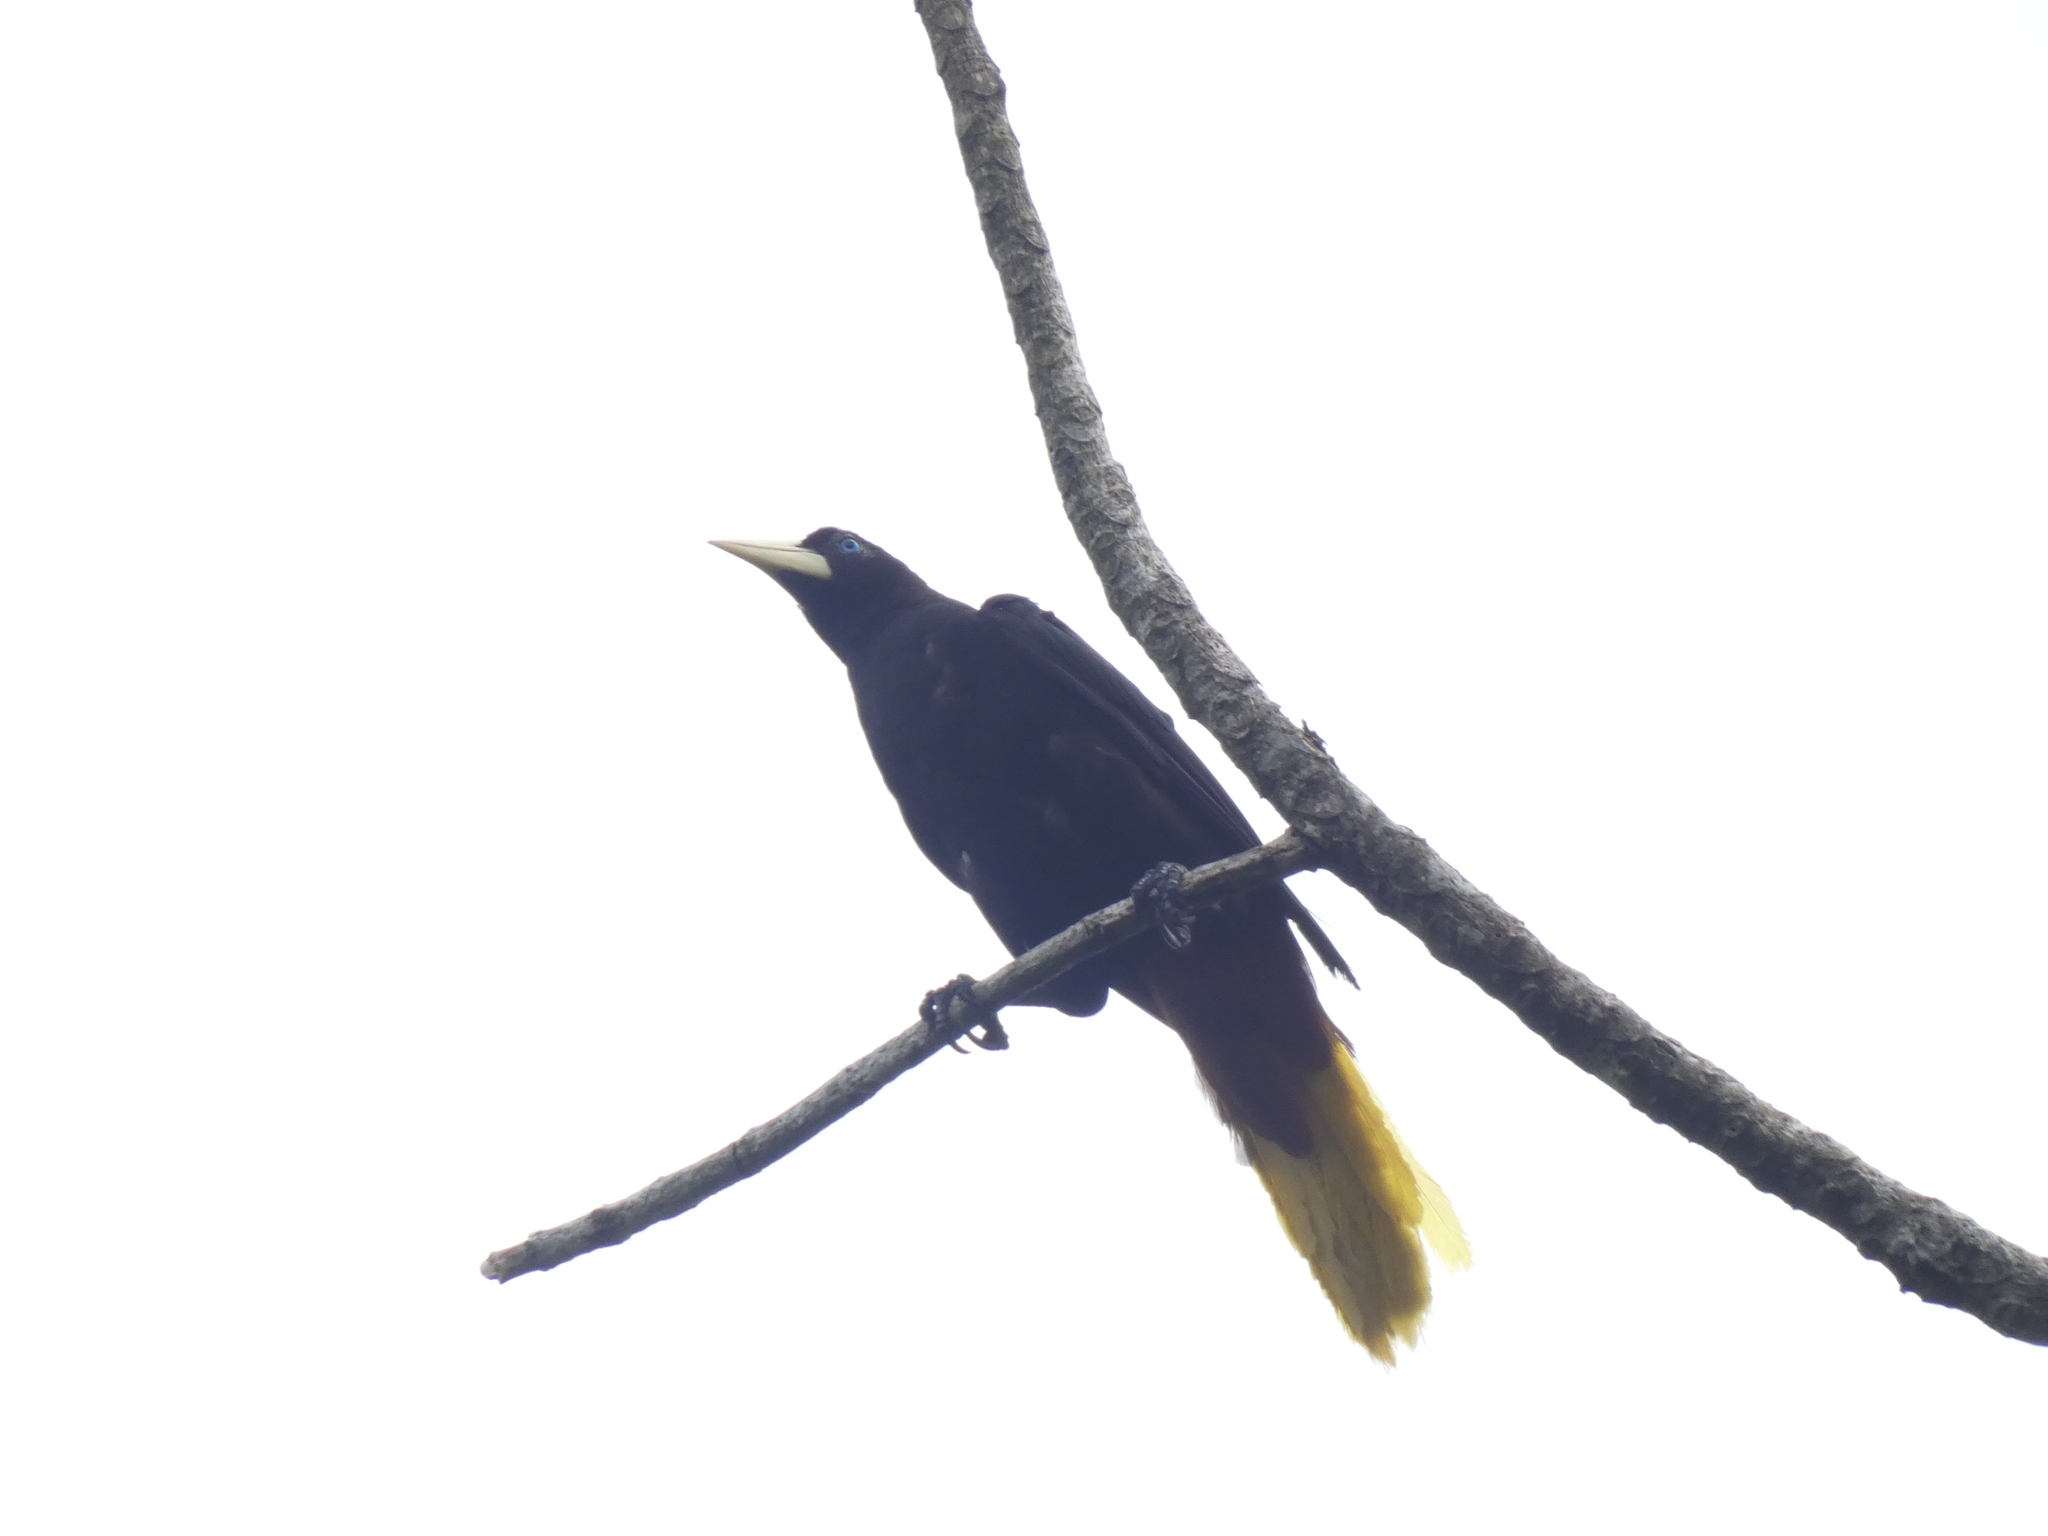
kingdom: Animalia
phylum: Chordata
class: Aves
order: Passeriformes
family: Icteridae
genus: Psarocolius
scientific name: Psarocolius decumanus
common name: Crested oropendola
